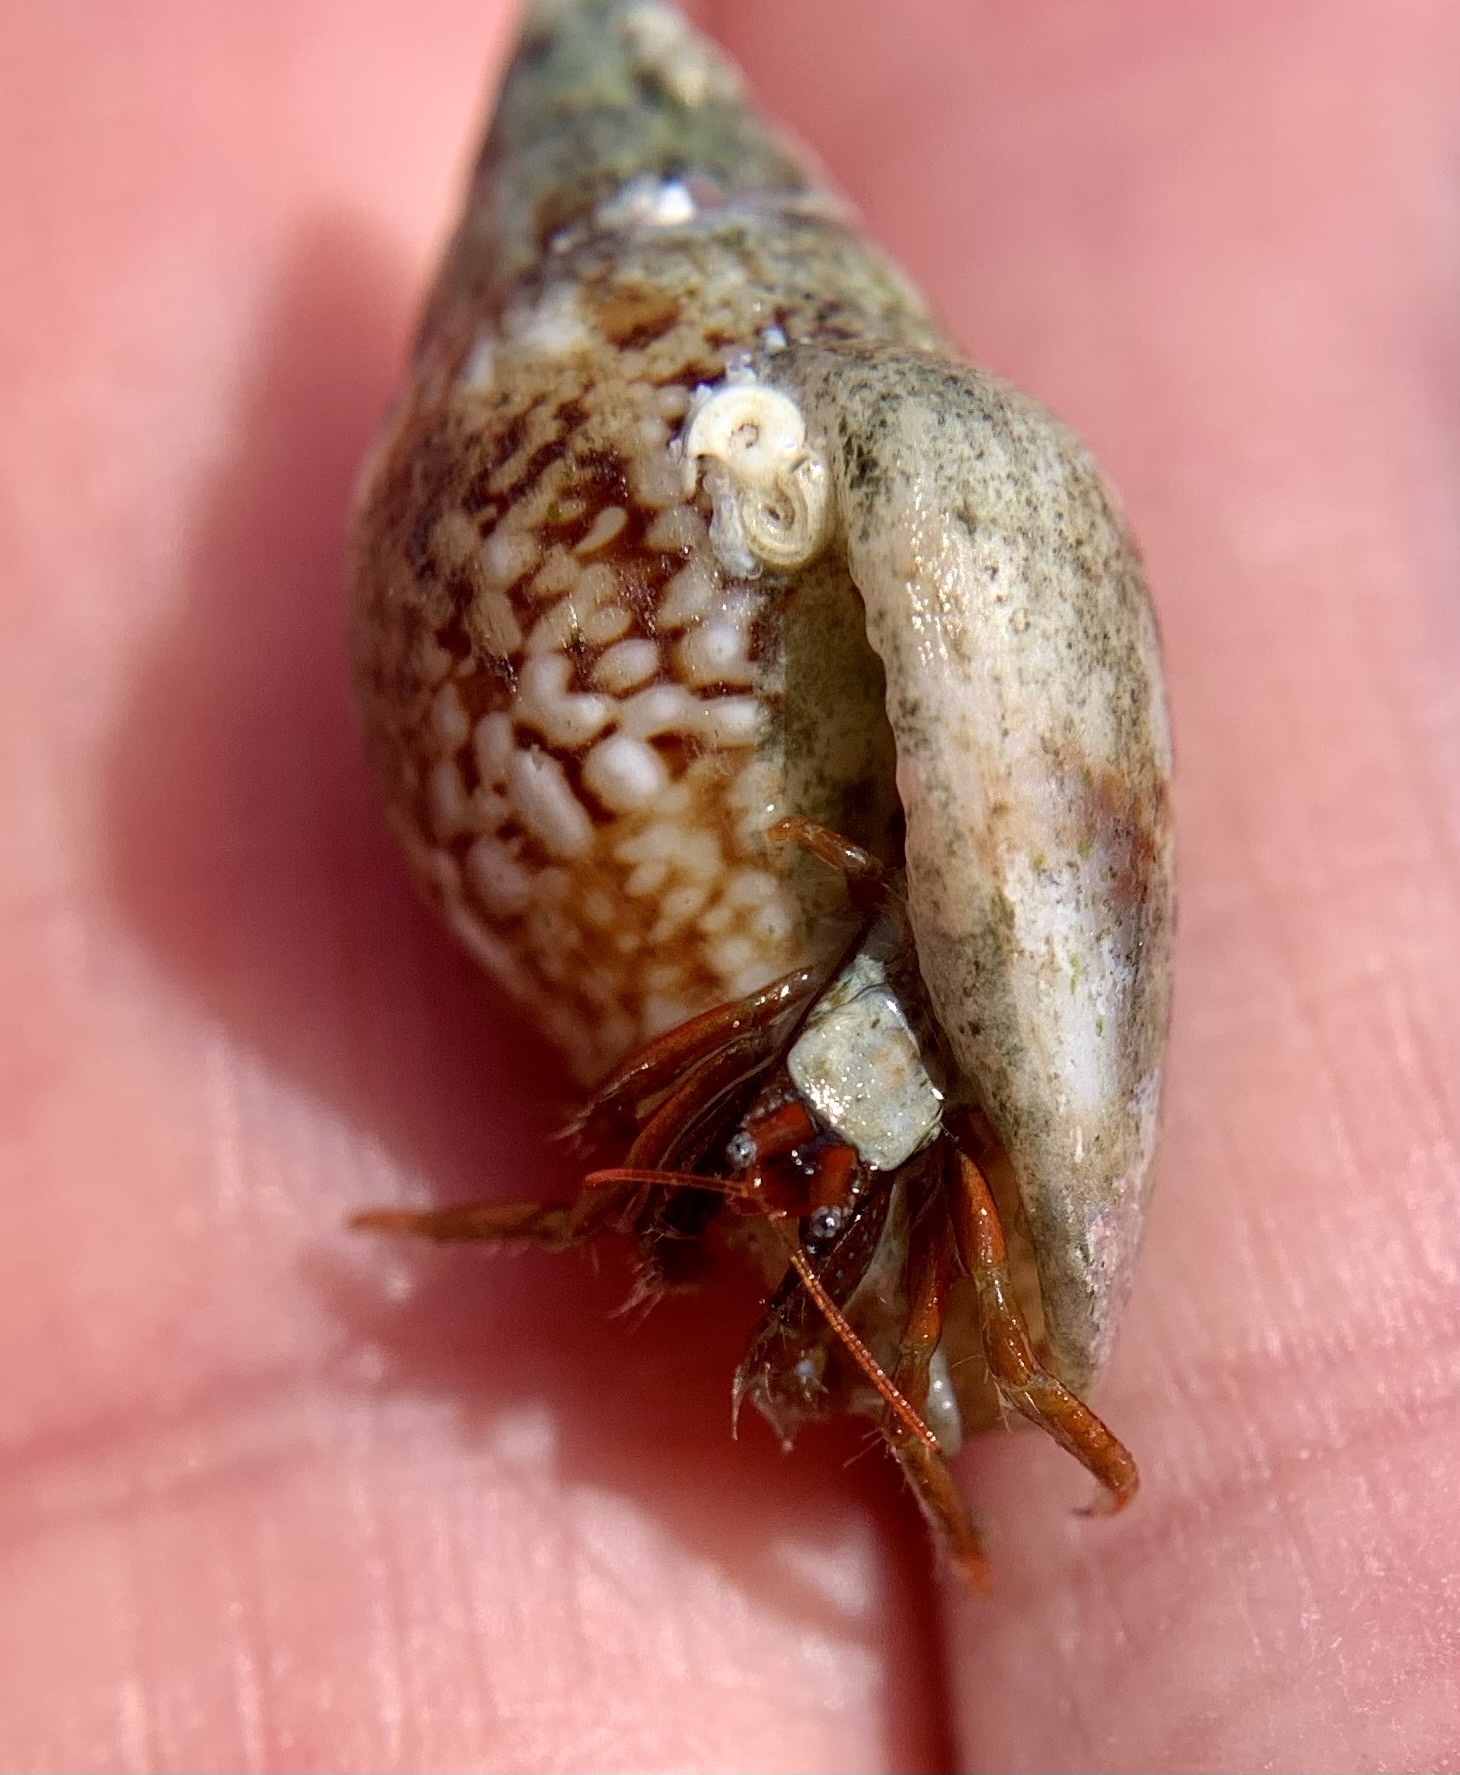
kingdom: Animalia
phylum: Arthropoda
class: Malacostraca
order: Decapoda
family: Diogenidae
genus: Clibanarius
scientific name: Clibanarius erythropus
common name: Hermit crab
